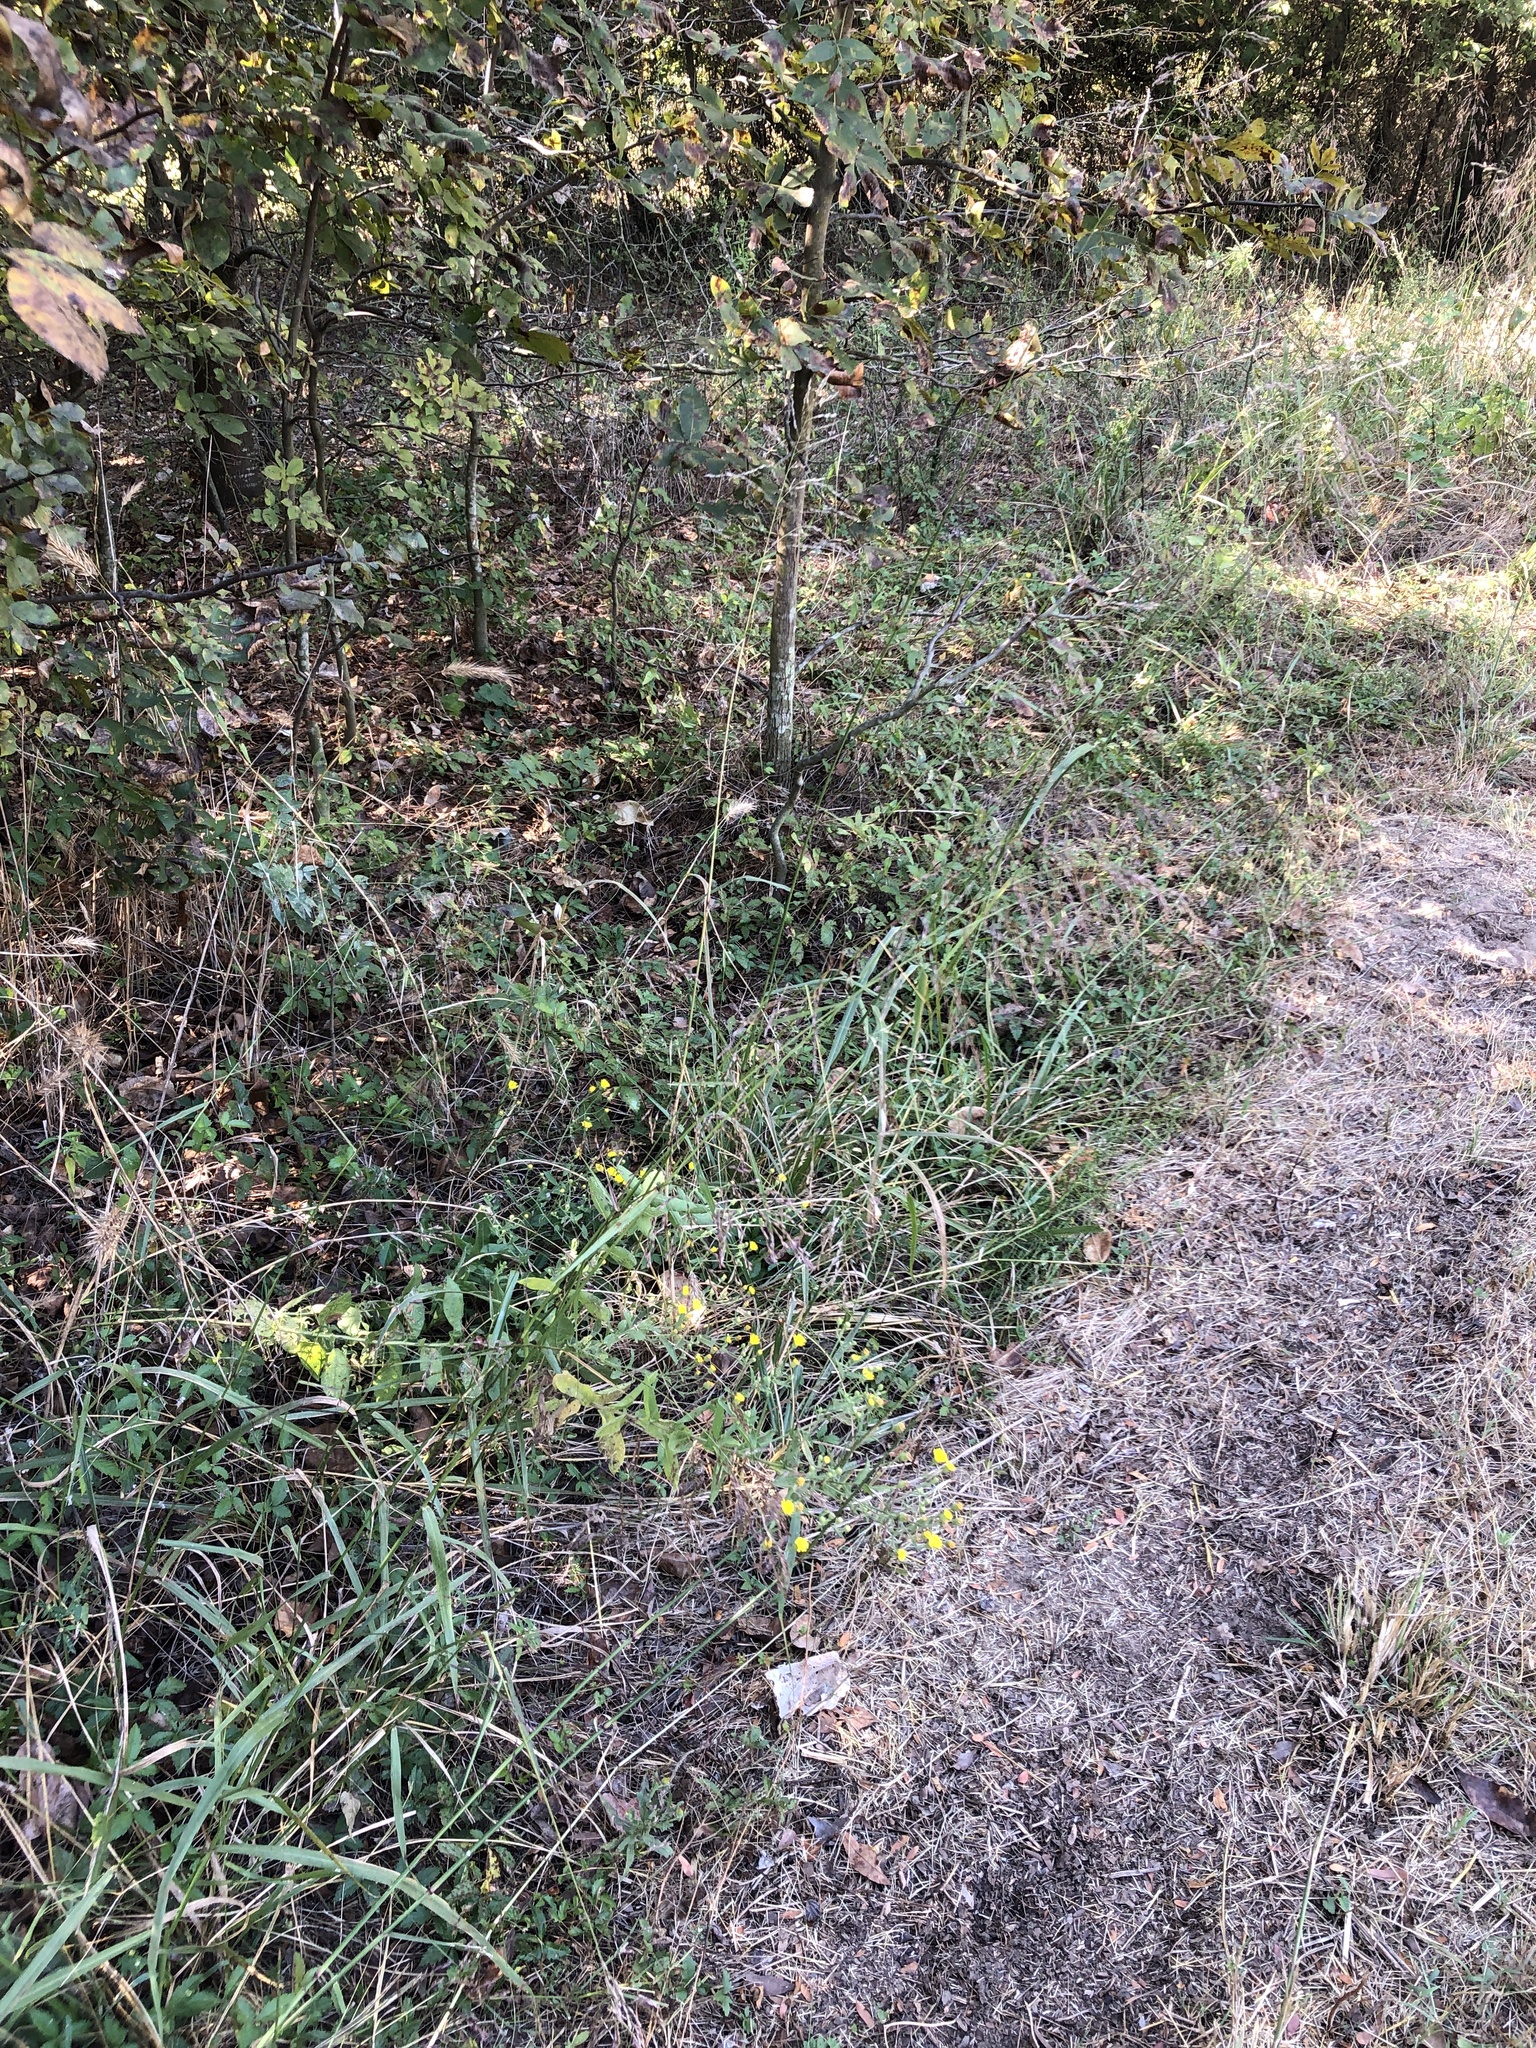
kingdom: Plantae
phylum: Tracheophyta
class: Liliopsida
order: Poales
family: Poaceae
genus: Tridens
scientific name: Tridens flavus
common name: Purpletop
